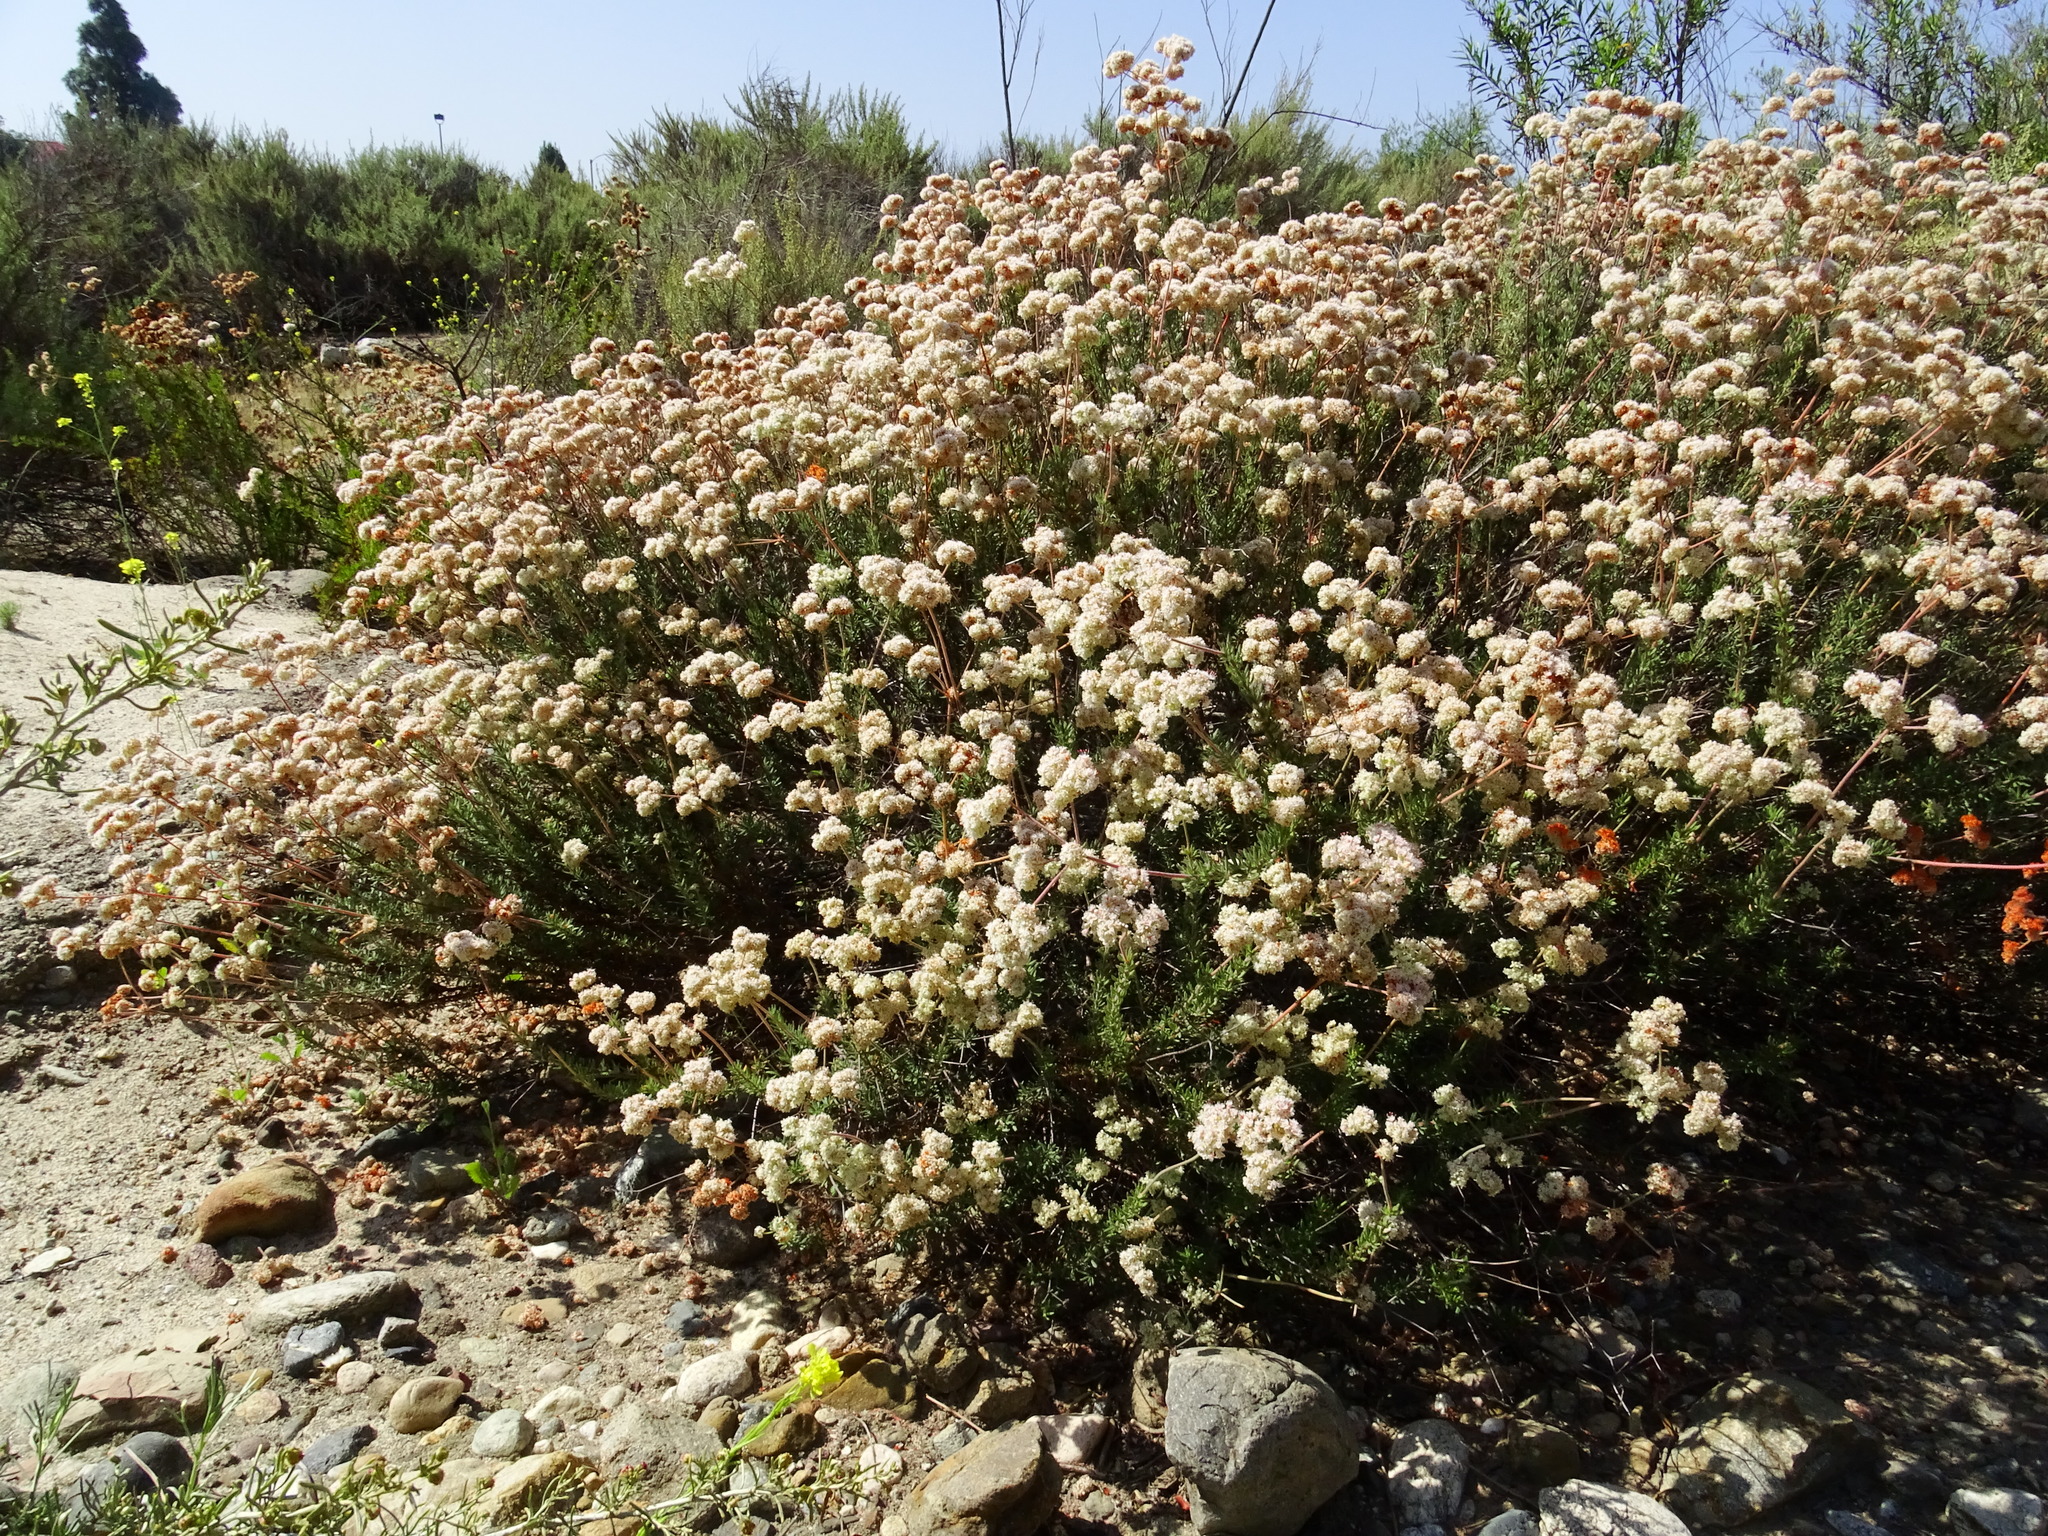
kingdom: Plantae
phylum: Tracheophyta
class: Magnoliopsida
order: Caryophyllales
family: Polygonaceae
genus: Eriogonum
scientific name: Eriogonum fasciculatum
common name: California wild buckwheat
